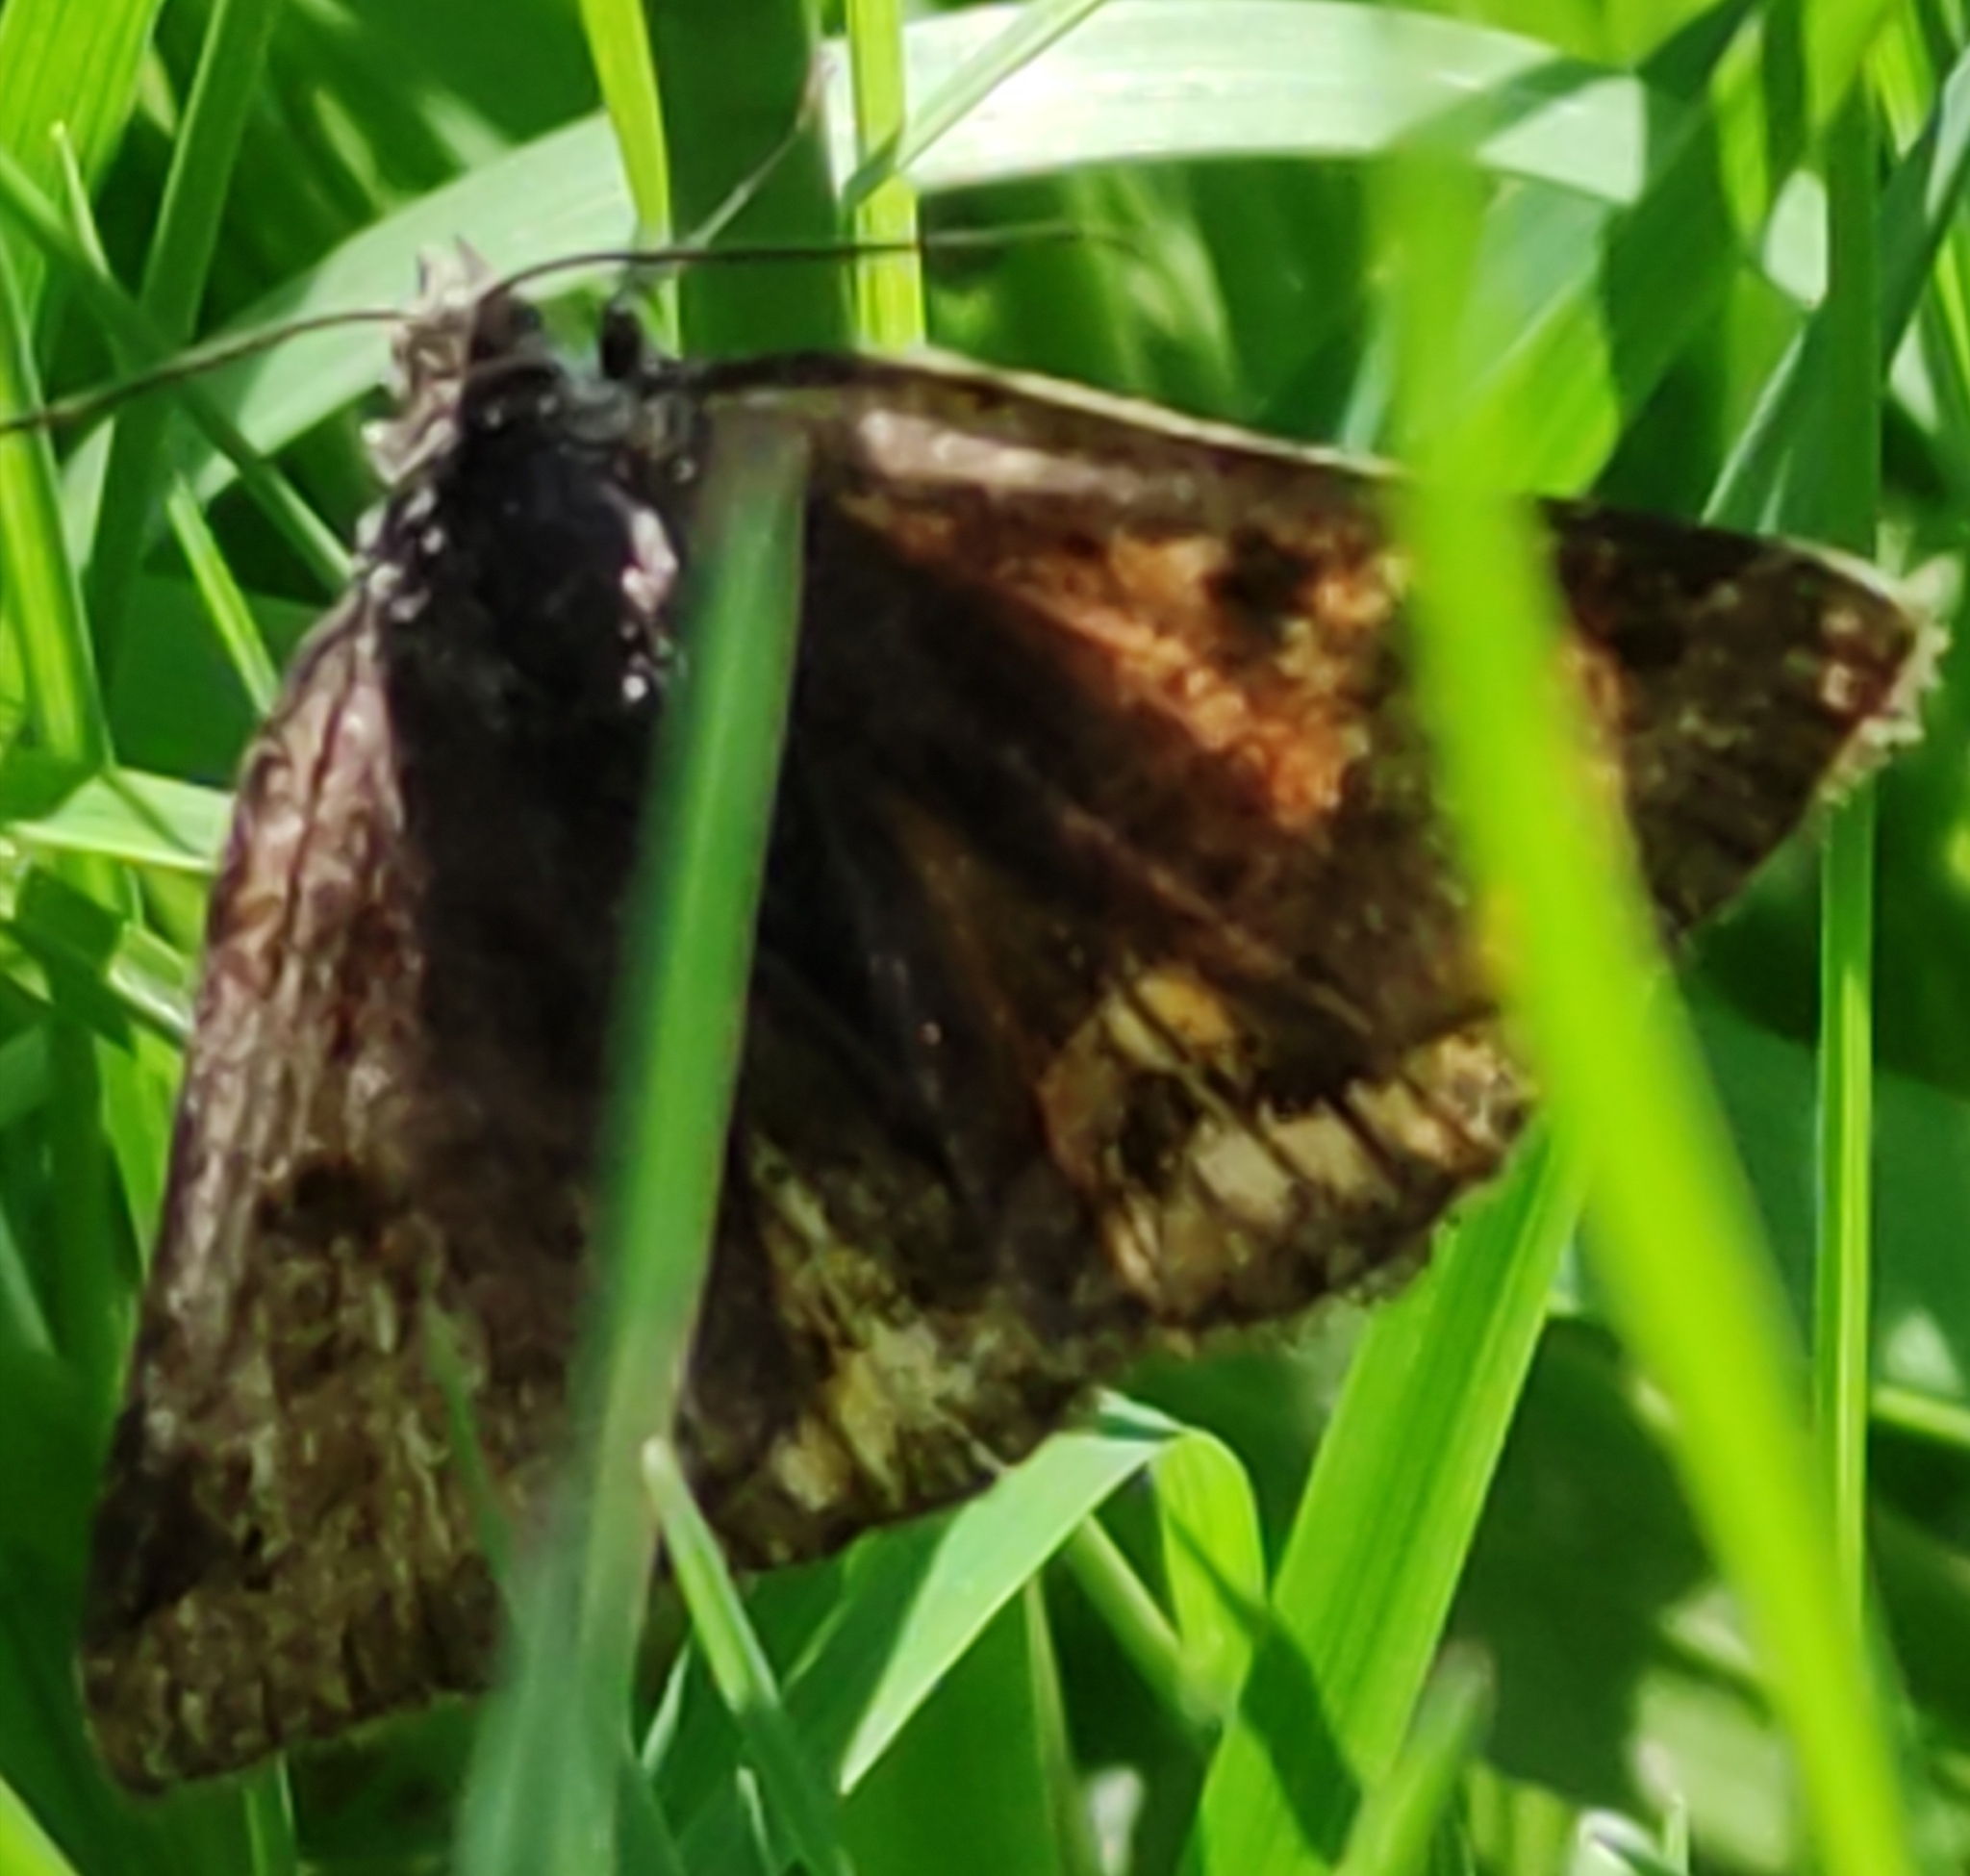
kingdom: Animalia
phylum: Arthropoda
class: Insecta
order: Lepidoptera
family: Erebidae
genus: Euclidia
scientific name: Euclidia glyphica
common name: Burnet companion
